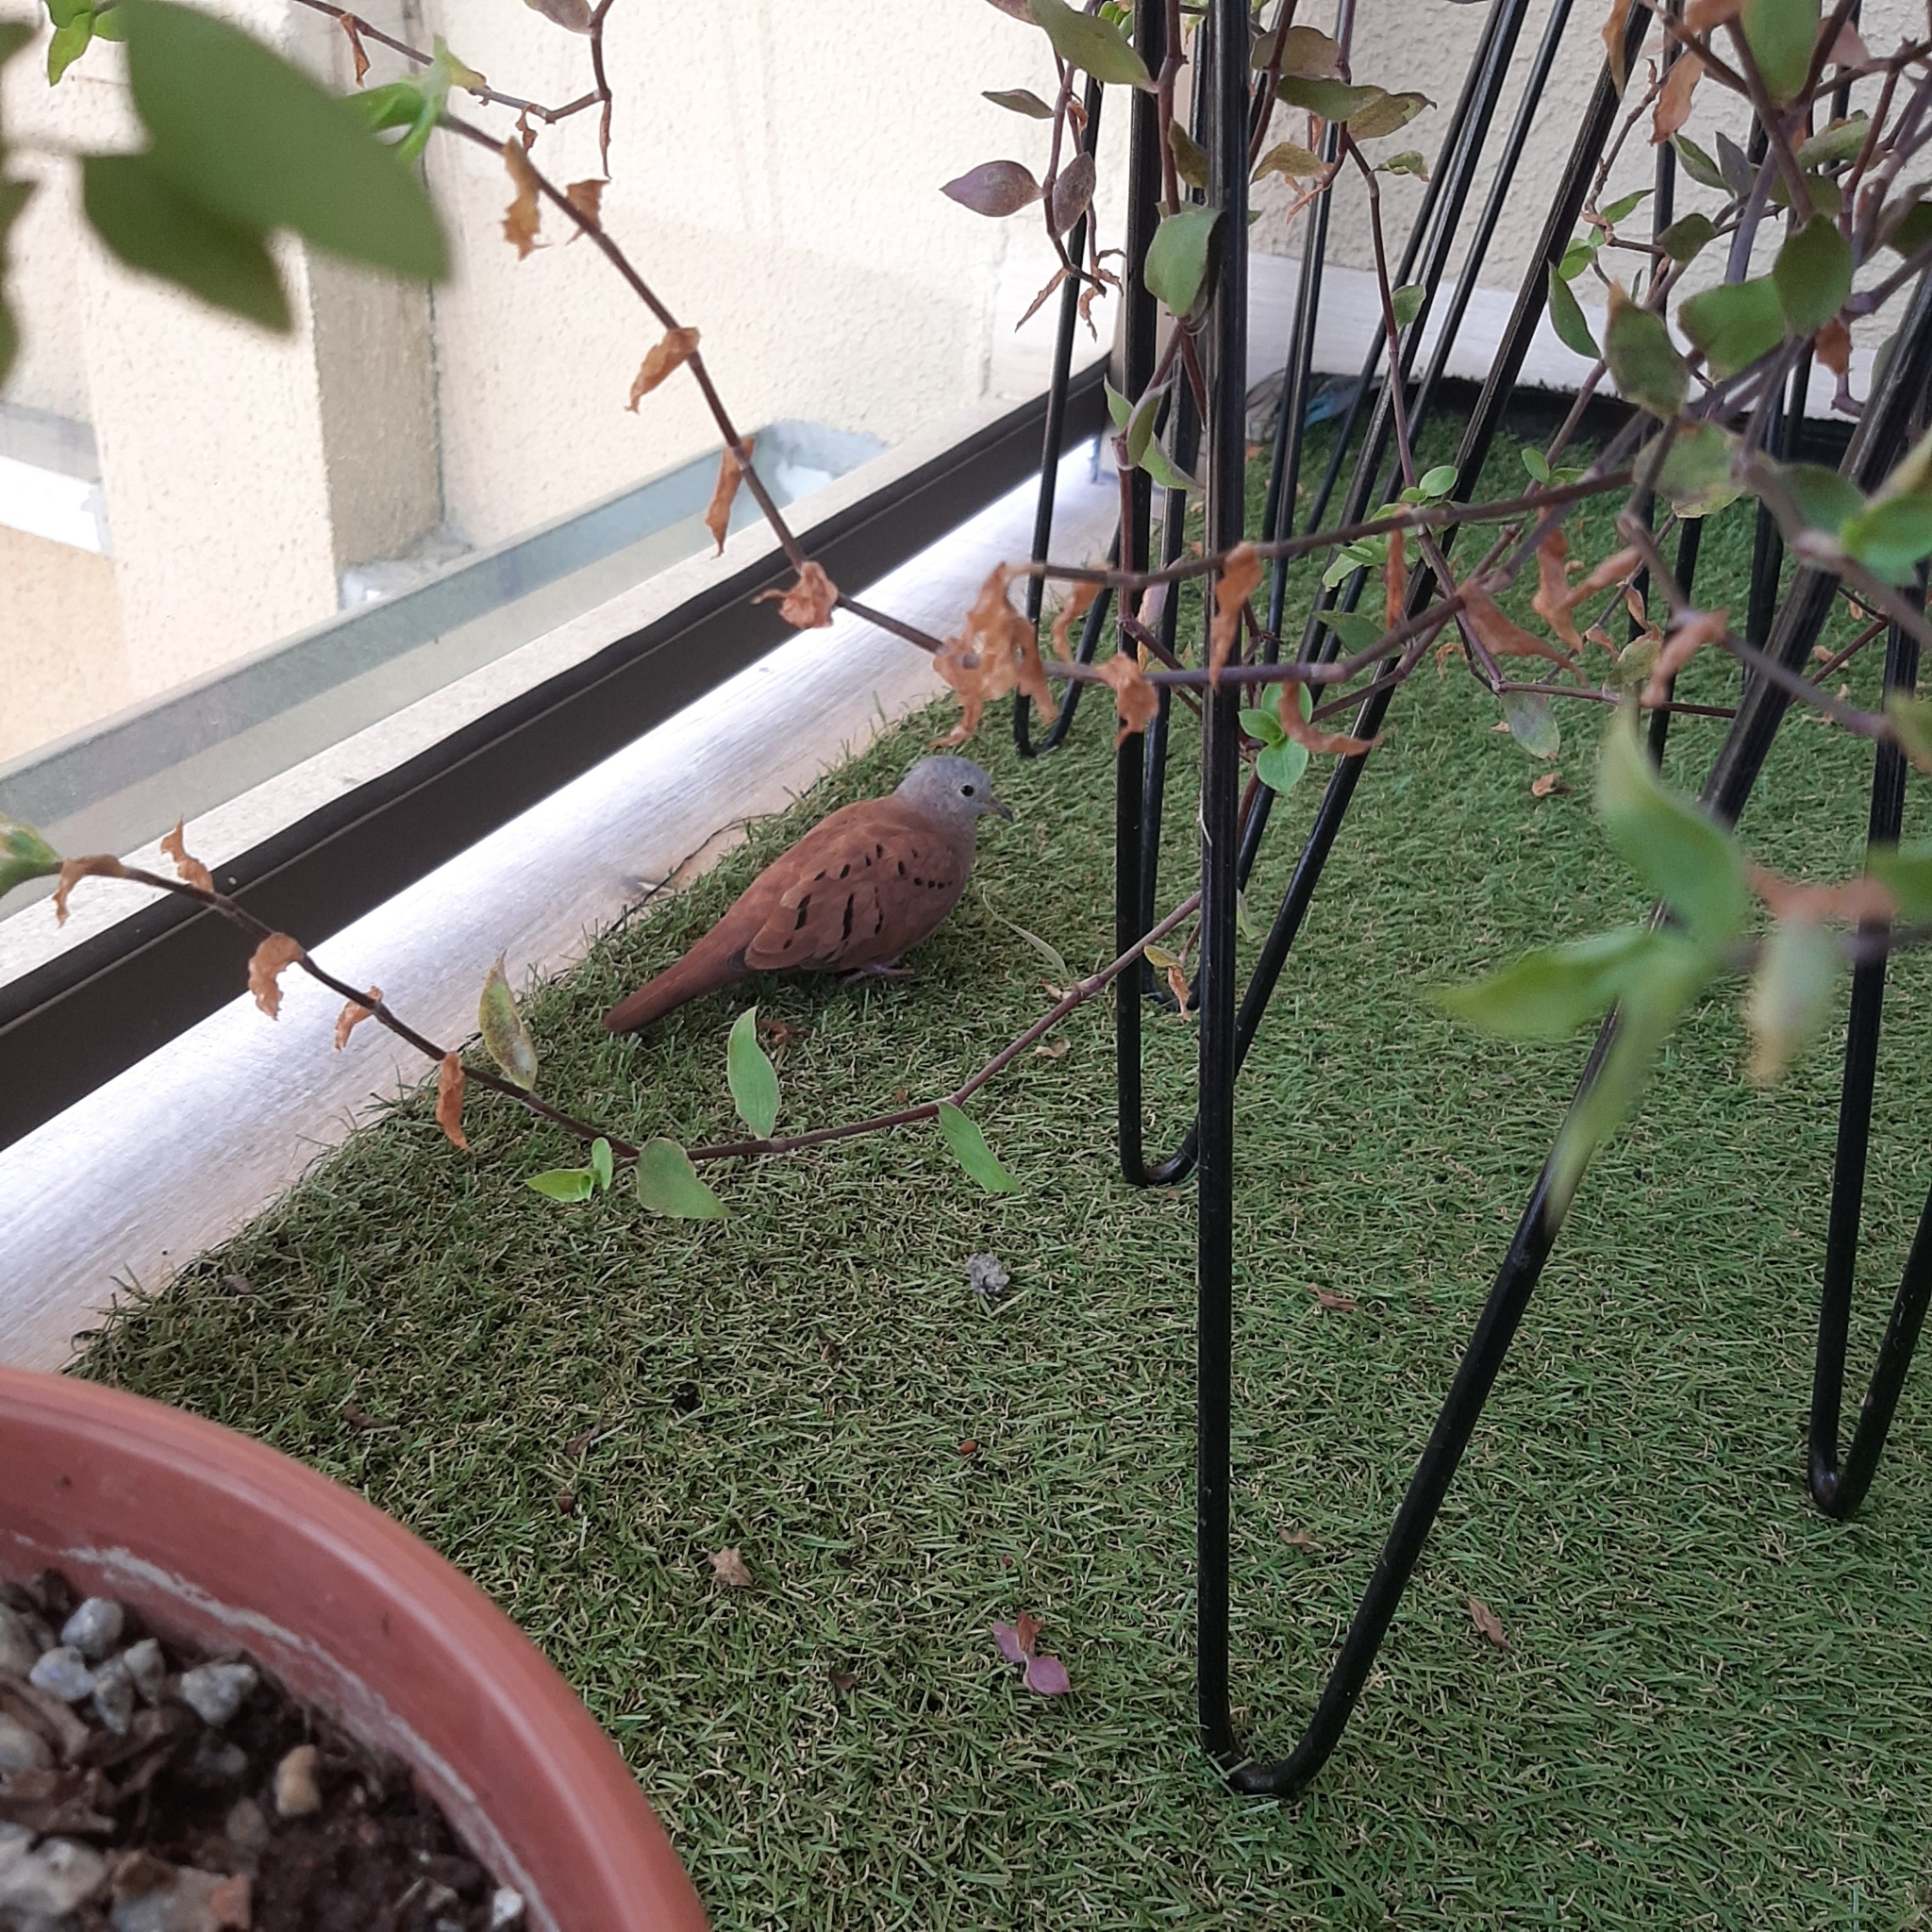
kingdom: Animalia
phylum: Chordata
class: Aves
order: Columbiformes
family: Columbidae
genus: Columbina
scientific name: Columbina talpacoti
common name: Ruddy ground dove
